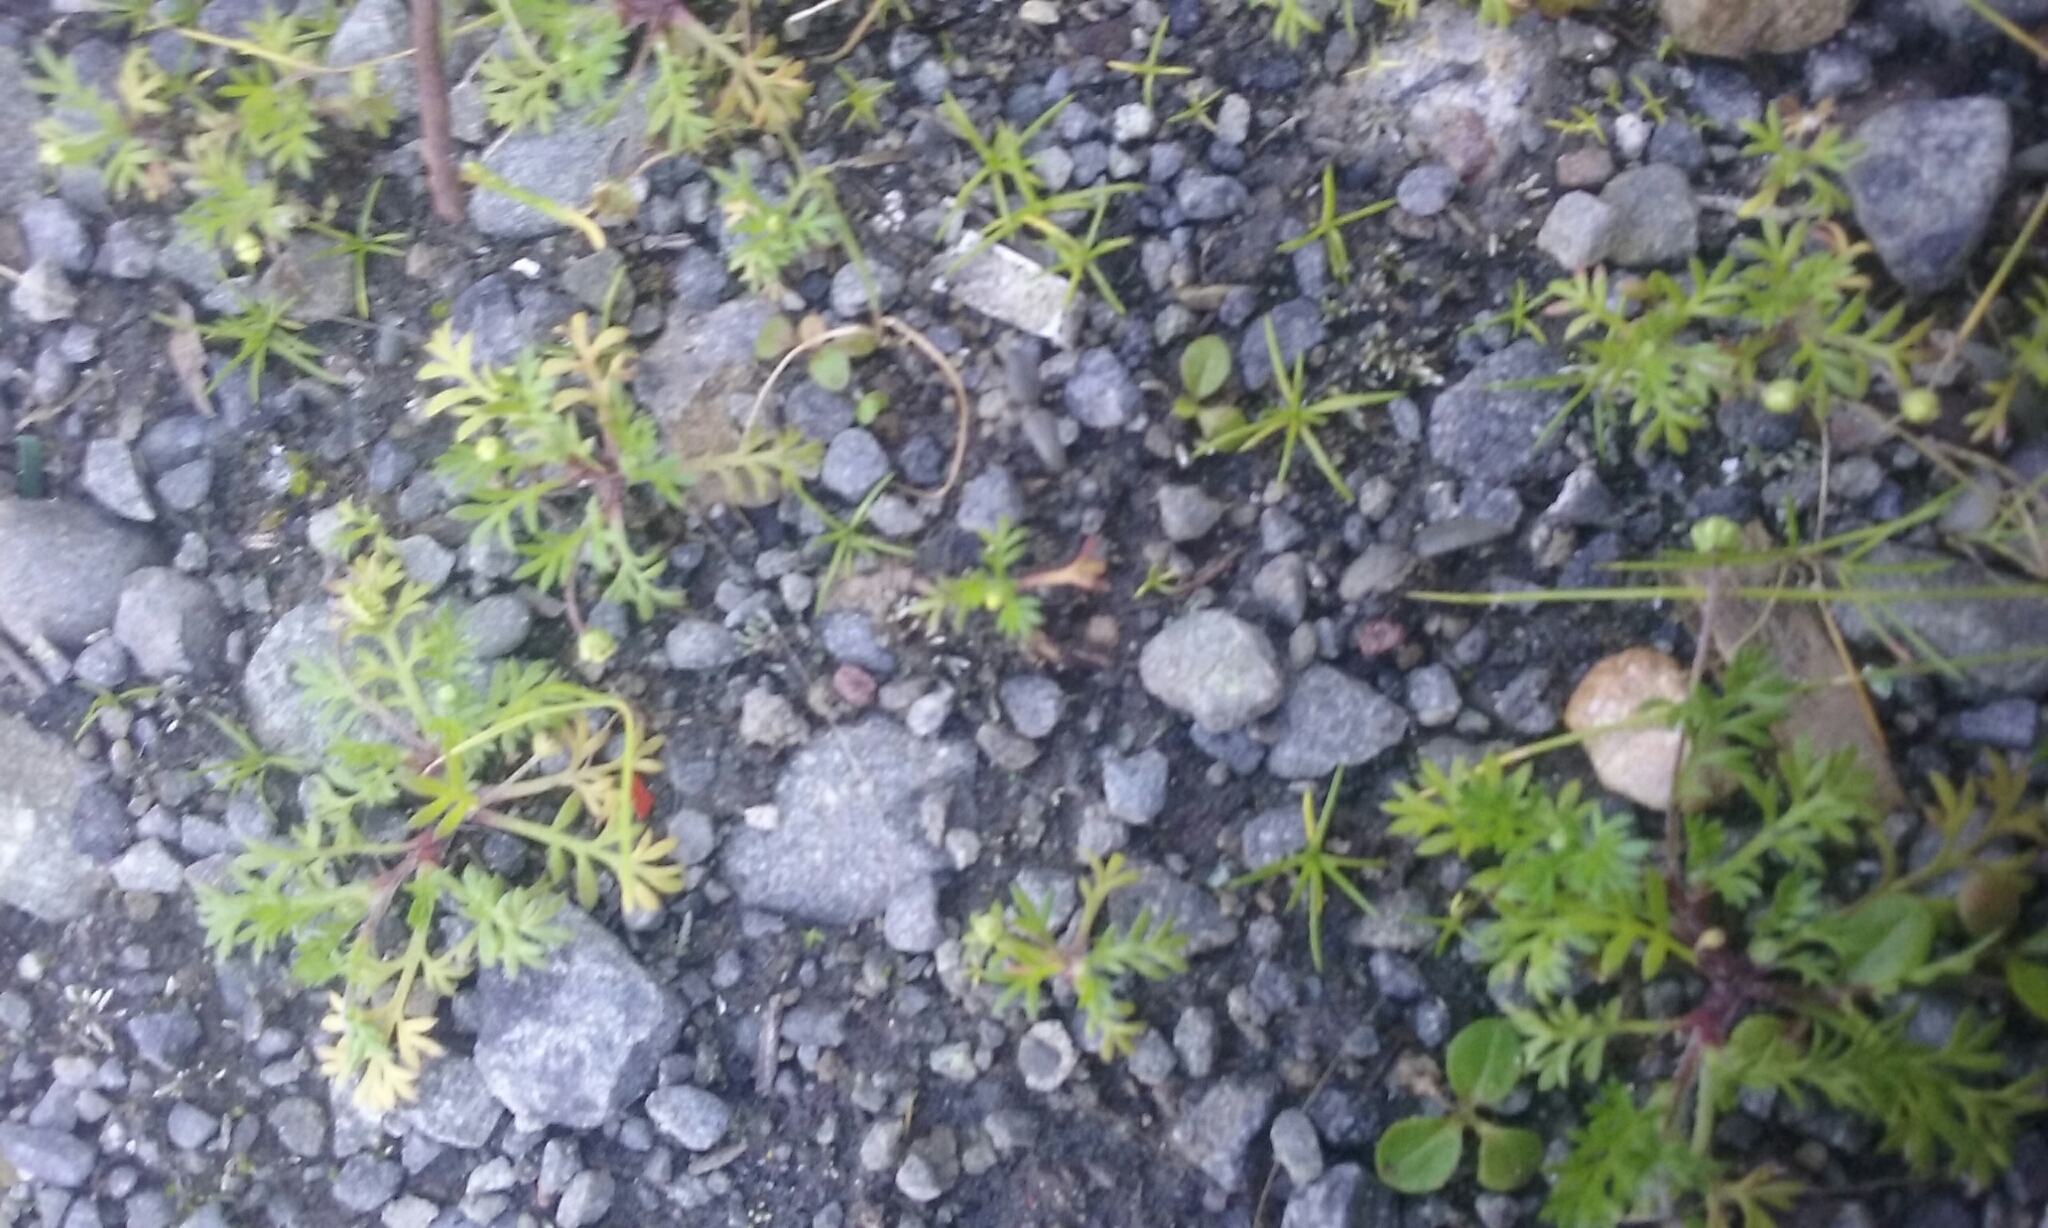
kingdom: Plantae
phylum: Tracheophyta
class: Magnoliopsida
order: Asterales
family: Asteraceae
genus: Cotula
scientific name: Cotula australis
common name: Australian waterbuttons
